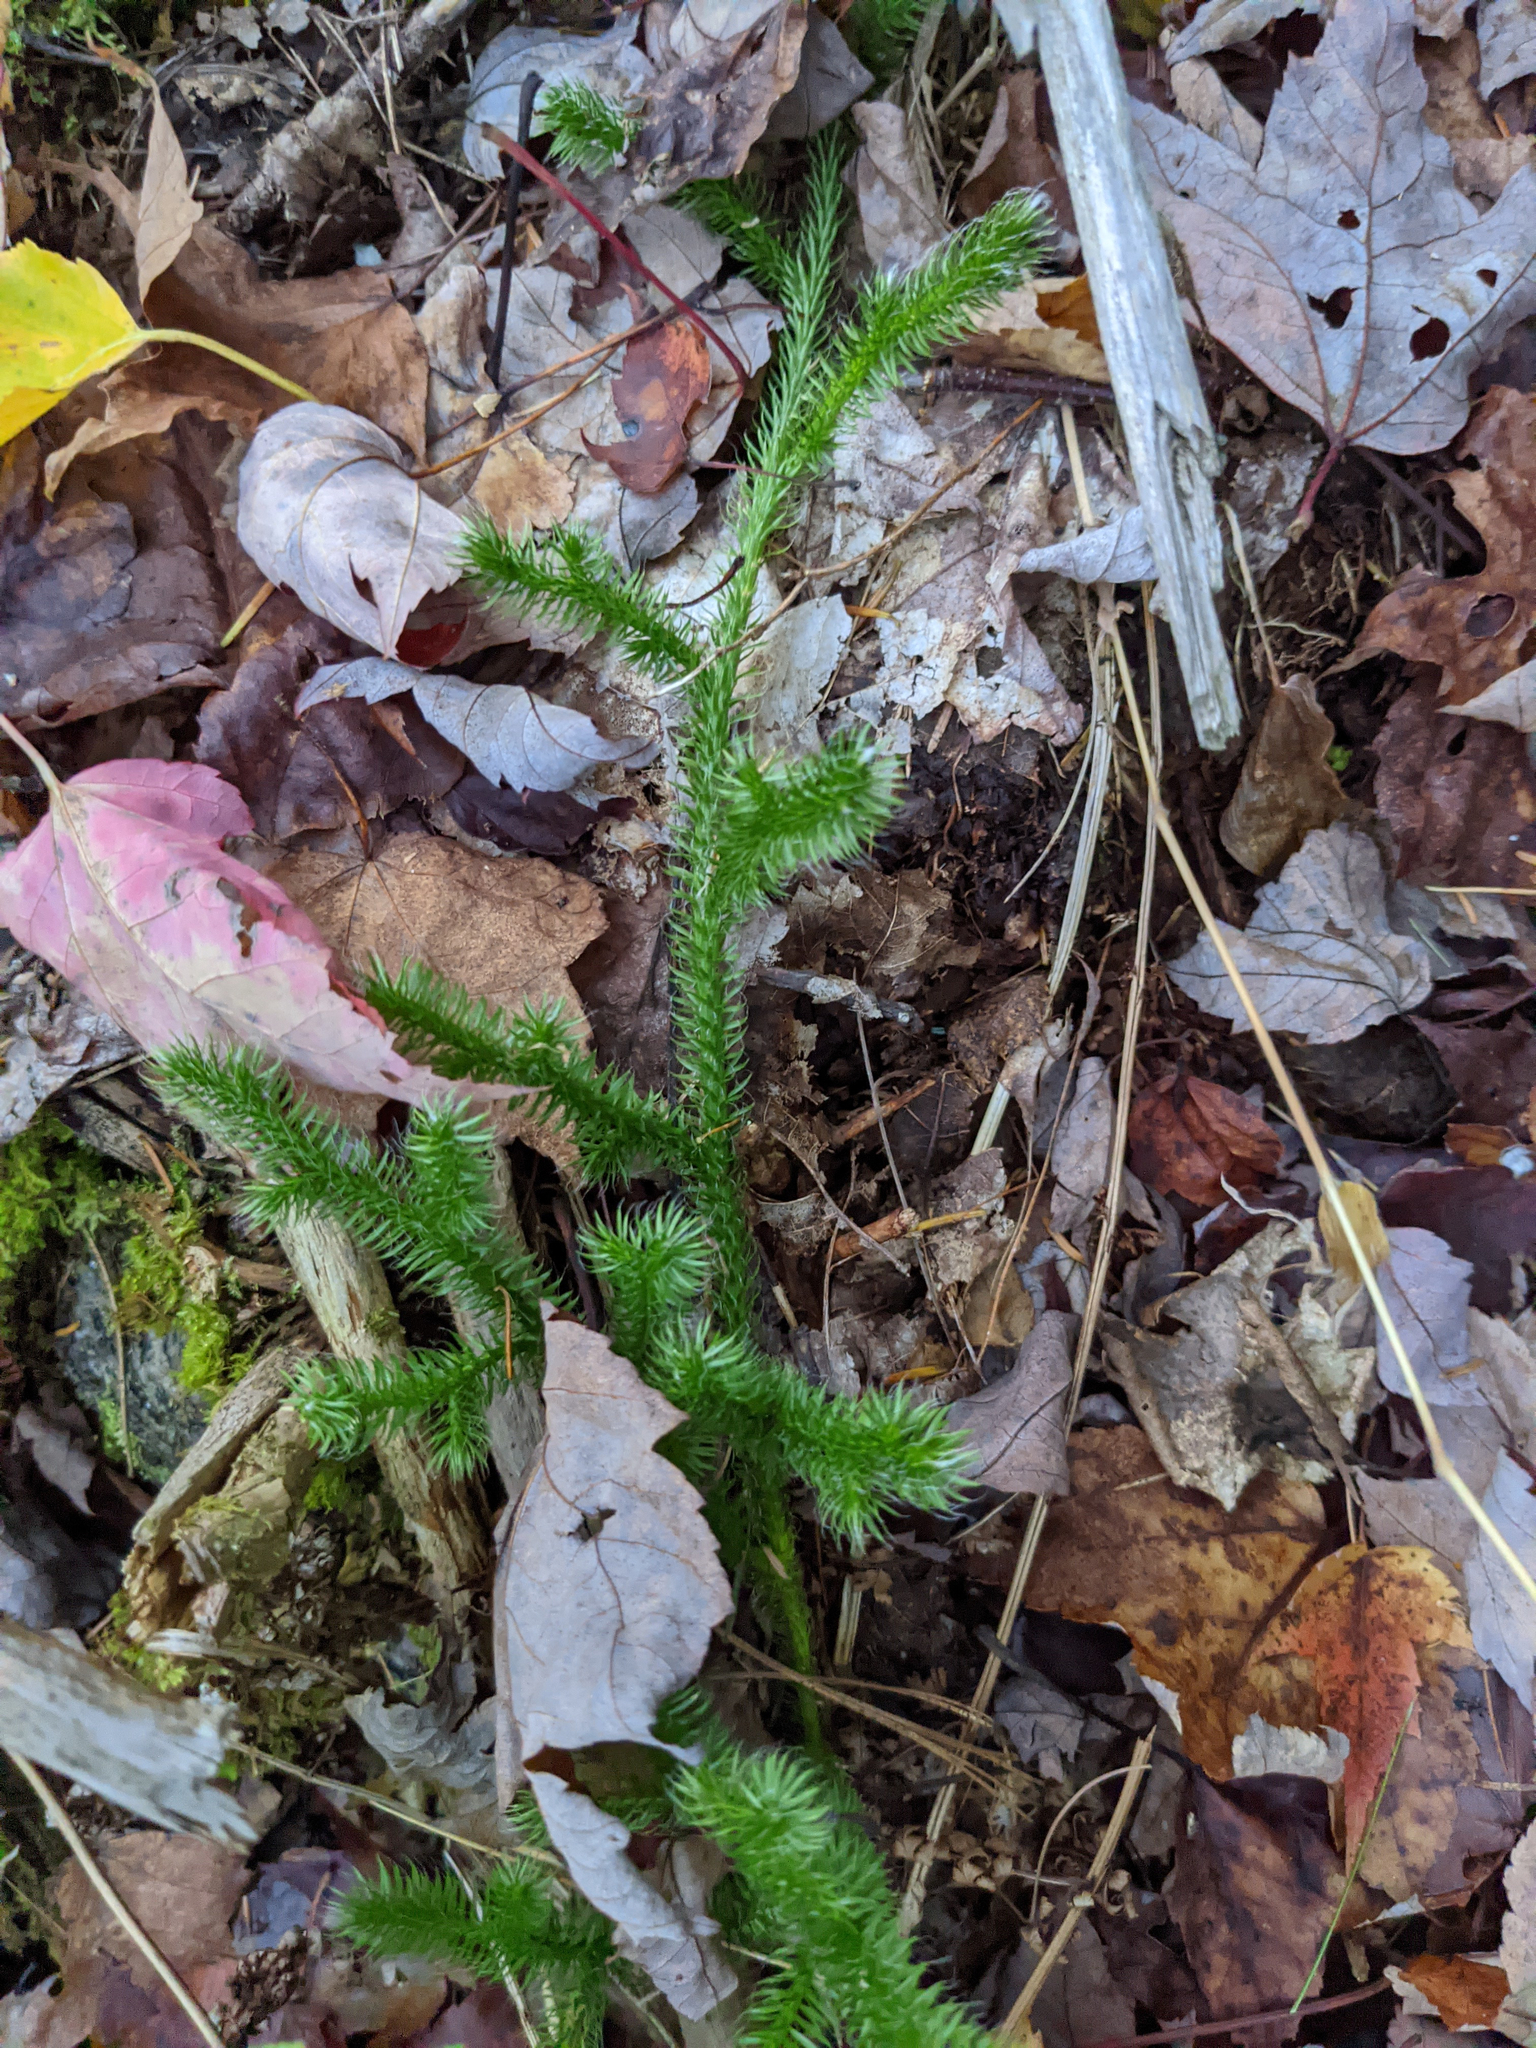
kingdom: Plantae
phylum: Tracheophyta
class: Lycopodiopsida
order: Lycopodiales
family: Lycopodiaceae
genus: Lycopodium
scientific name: Lycopodium clavatum
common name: Stag's-horn clubmoss
